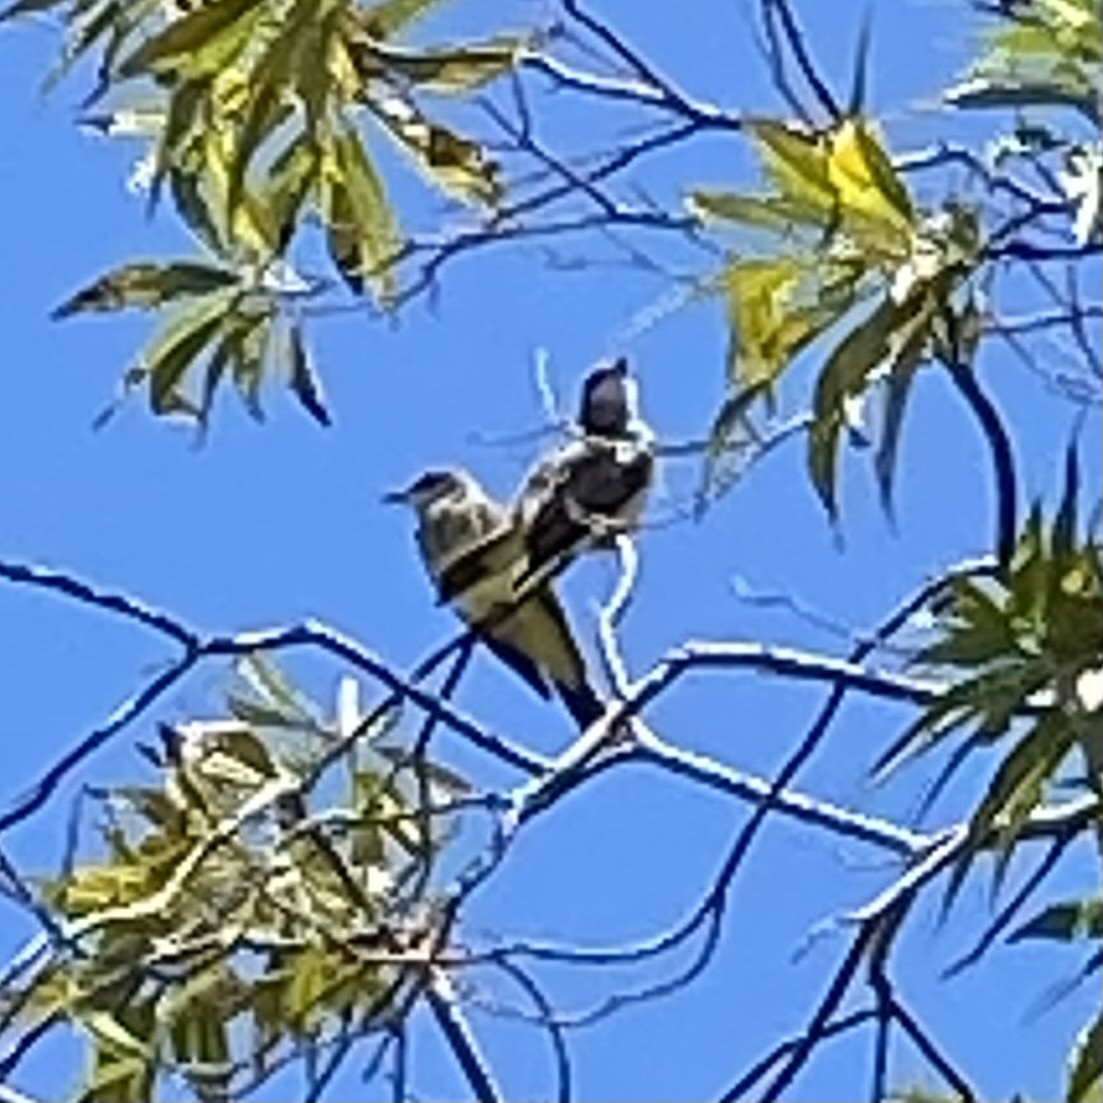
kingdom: Animalia
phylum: Chordata
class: Aves
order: Passeriformes
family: Tyrannidae
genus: Tyrannus
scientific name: Tyrannus vociferans
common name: Cassin's kingbird
